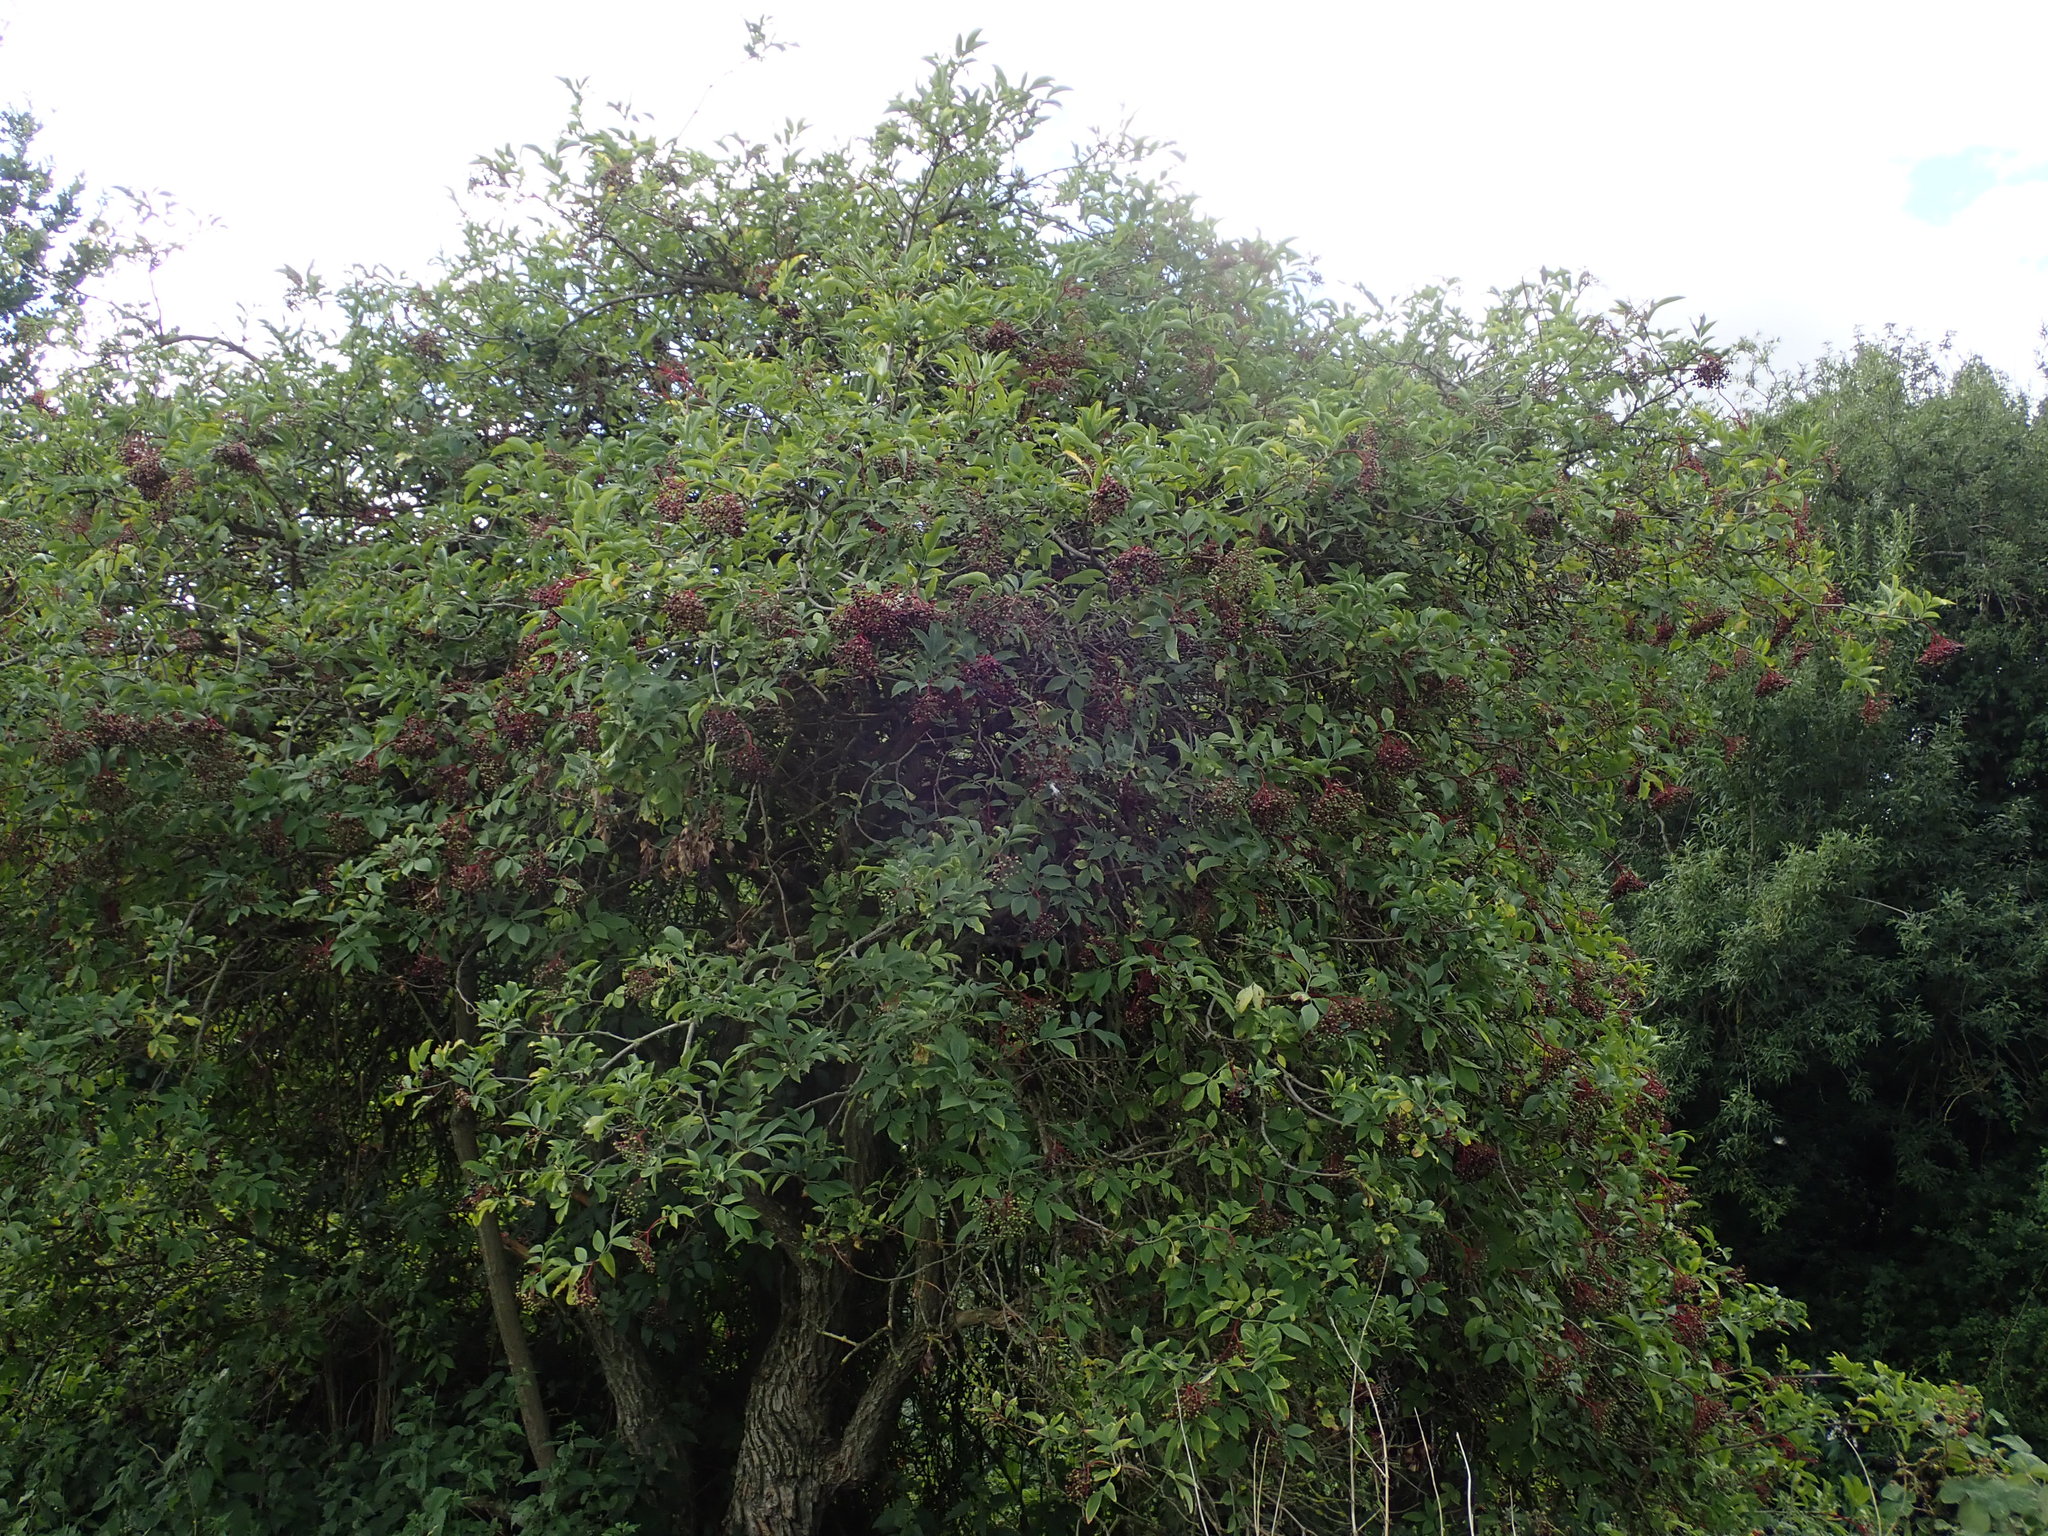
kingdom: Plantae
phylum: Tracheophyta
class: Magnoliopsida
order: Dipsacales
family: Viburnaceae
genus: Sambucus
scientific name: Sambucus nigra
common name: Elder
